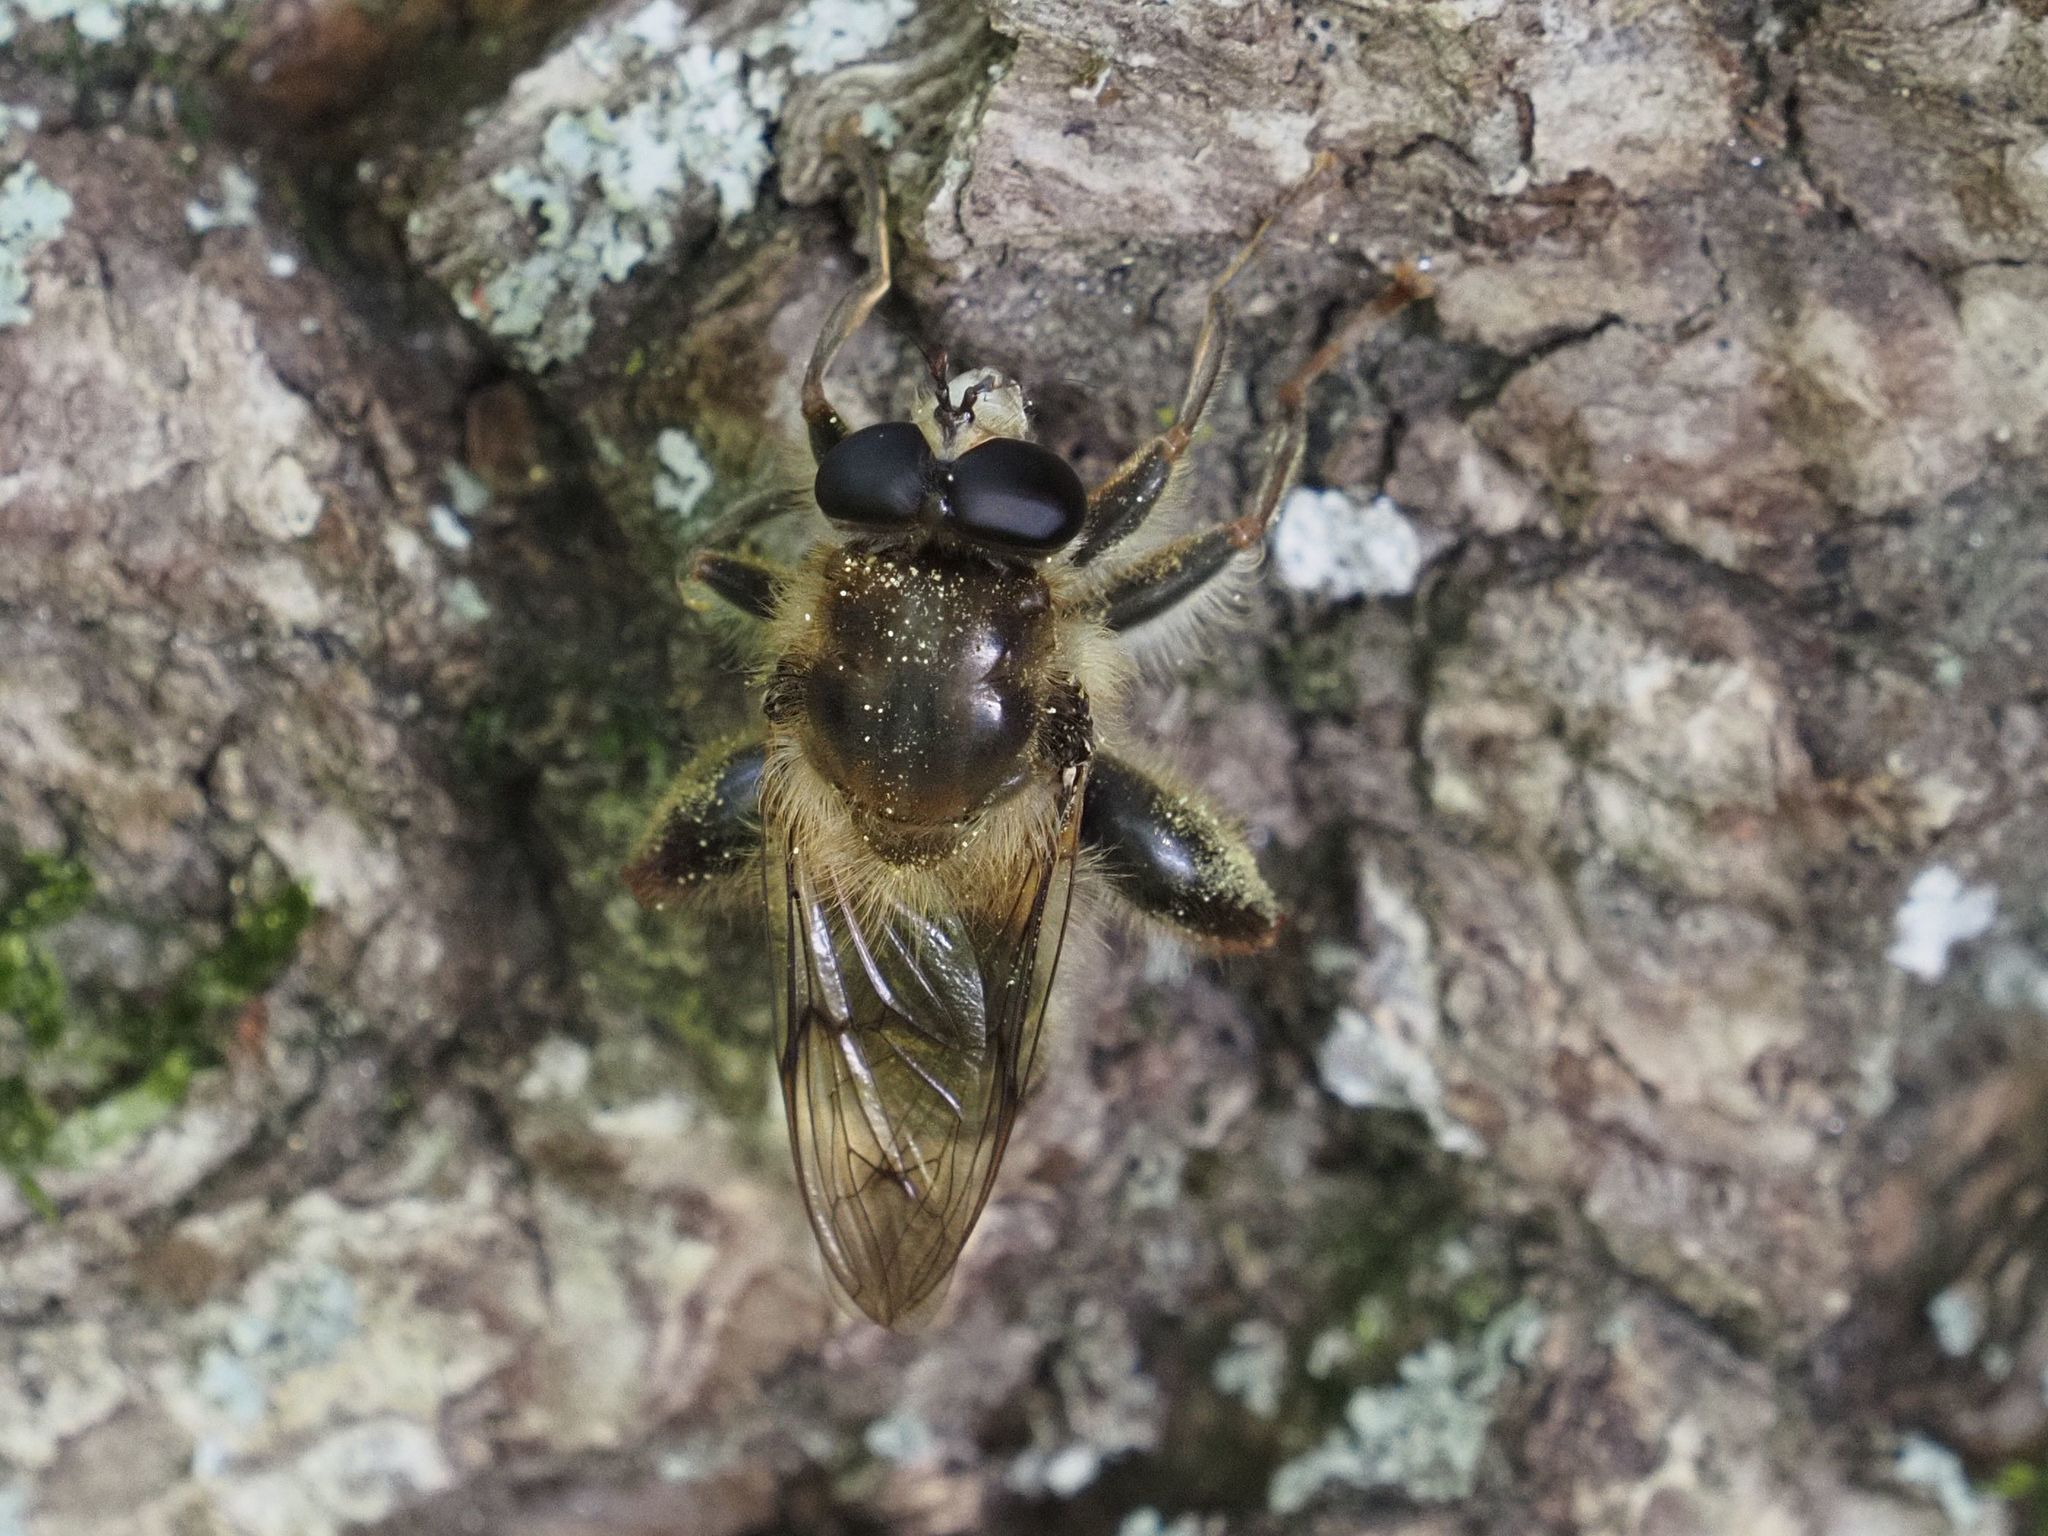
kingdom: Animalia
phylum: Arthropoda
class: Insecta
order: Diptera
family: Syrphidae
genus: Criorhina
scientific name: Criorhina pachymera
